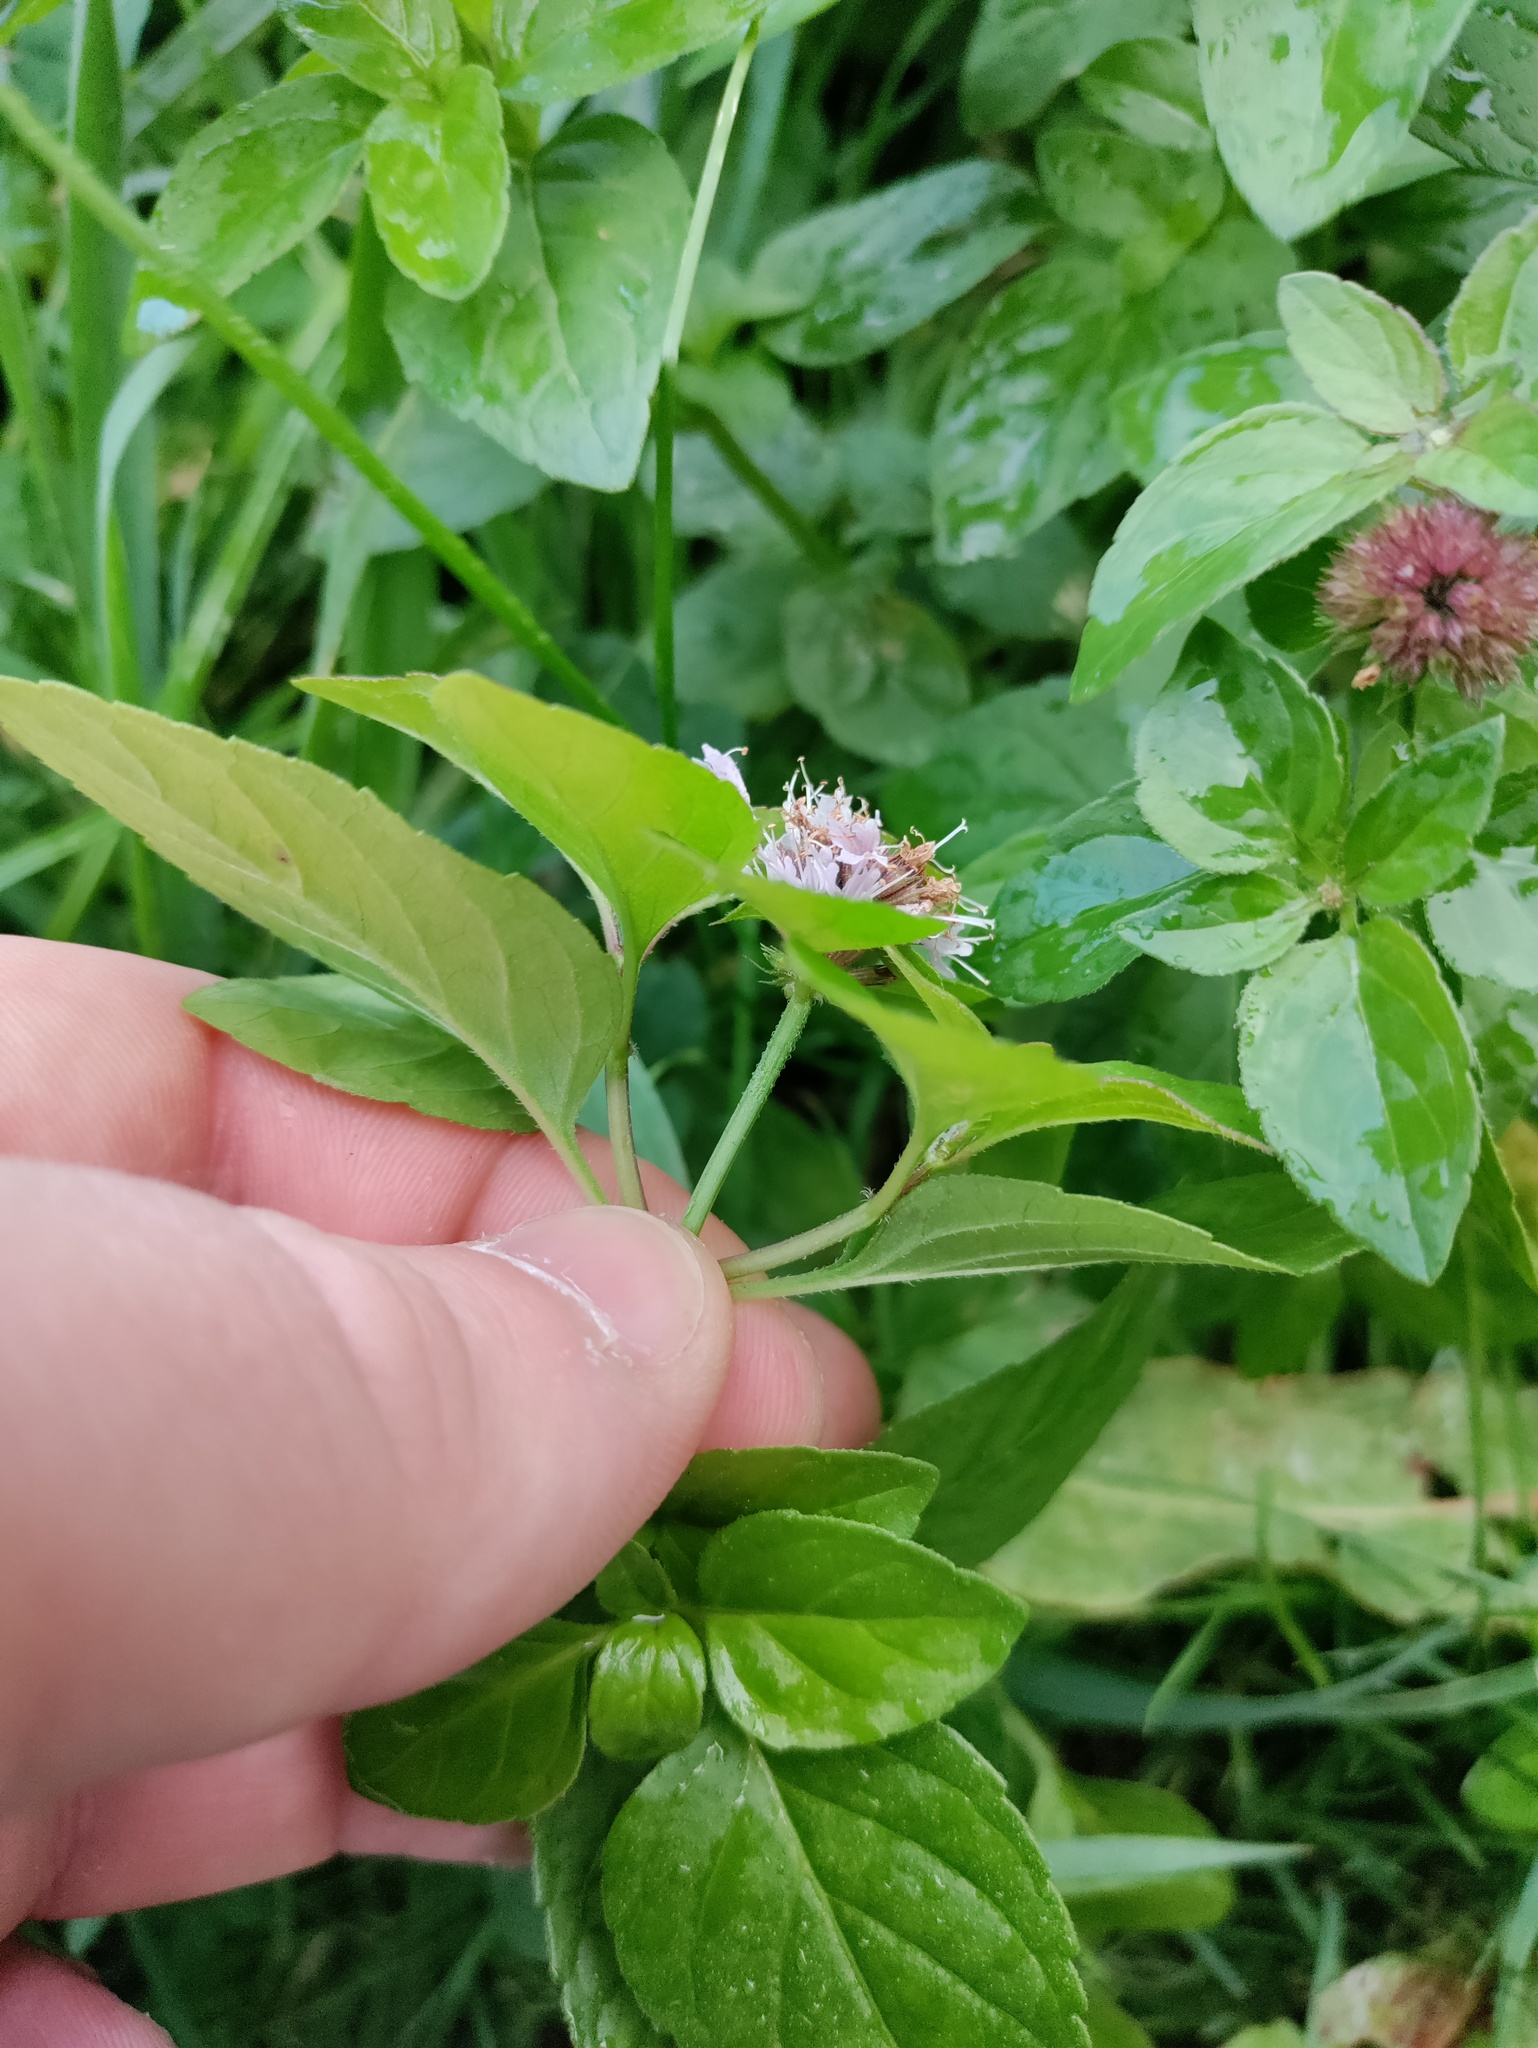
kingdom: Plantae
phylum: Tracheophyta
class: Magnoliopsida
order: Lamiales
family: Lamiaceae
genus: Mentha
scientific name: Mentha aquatica
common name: Water mint
